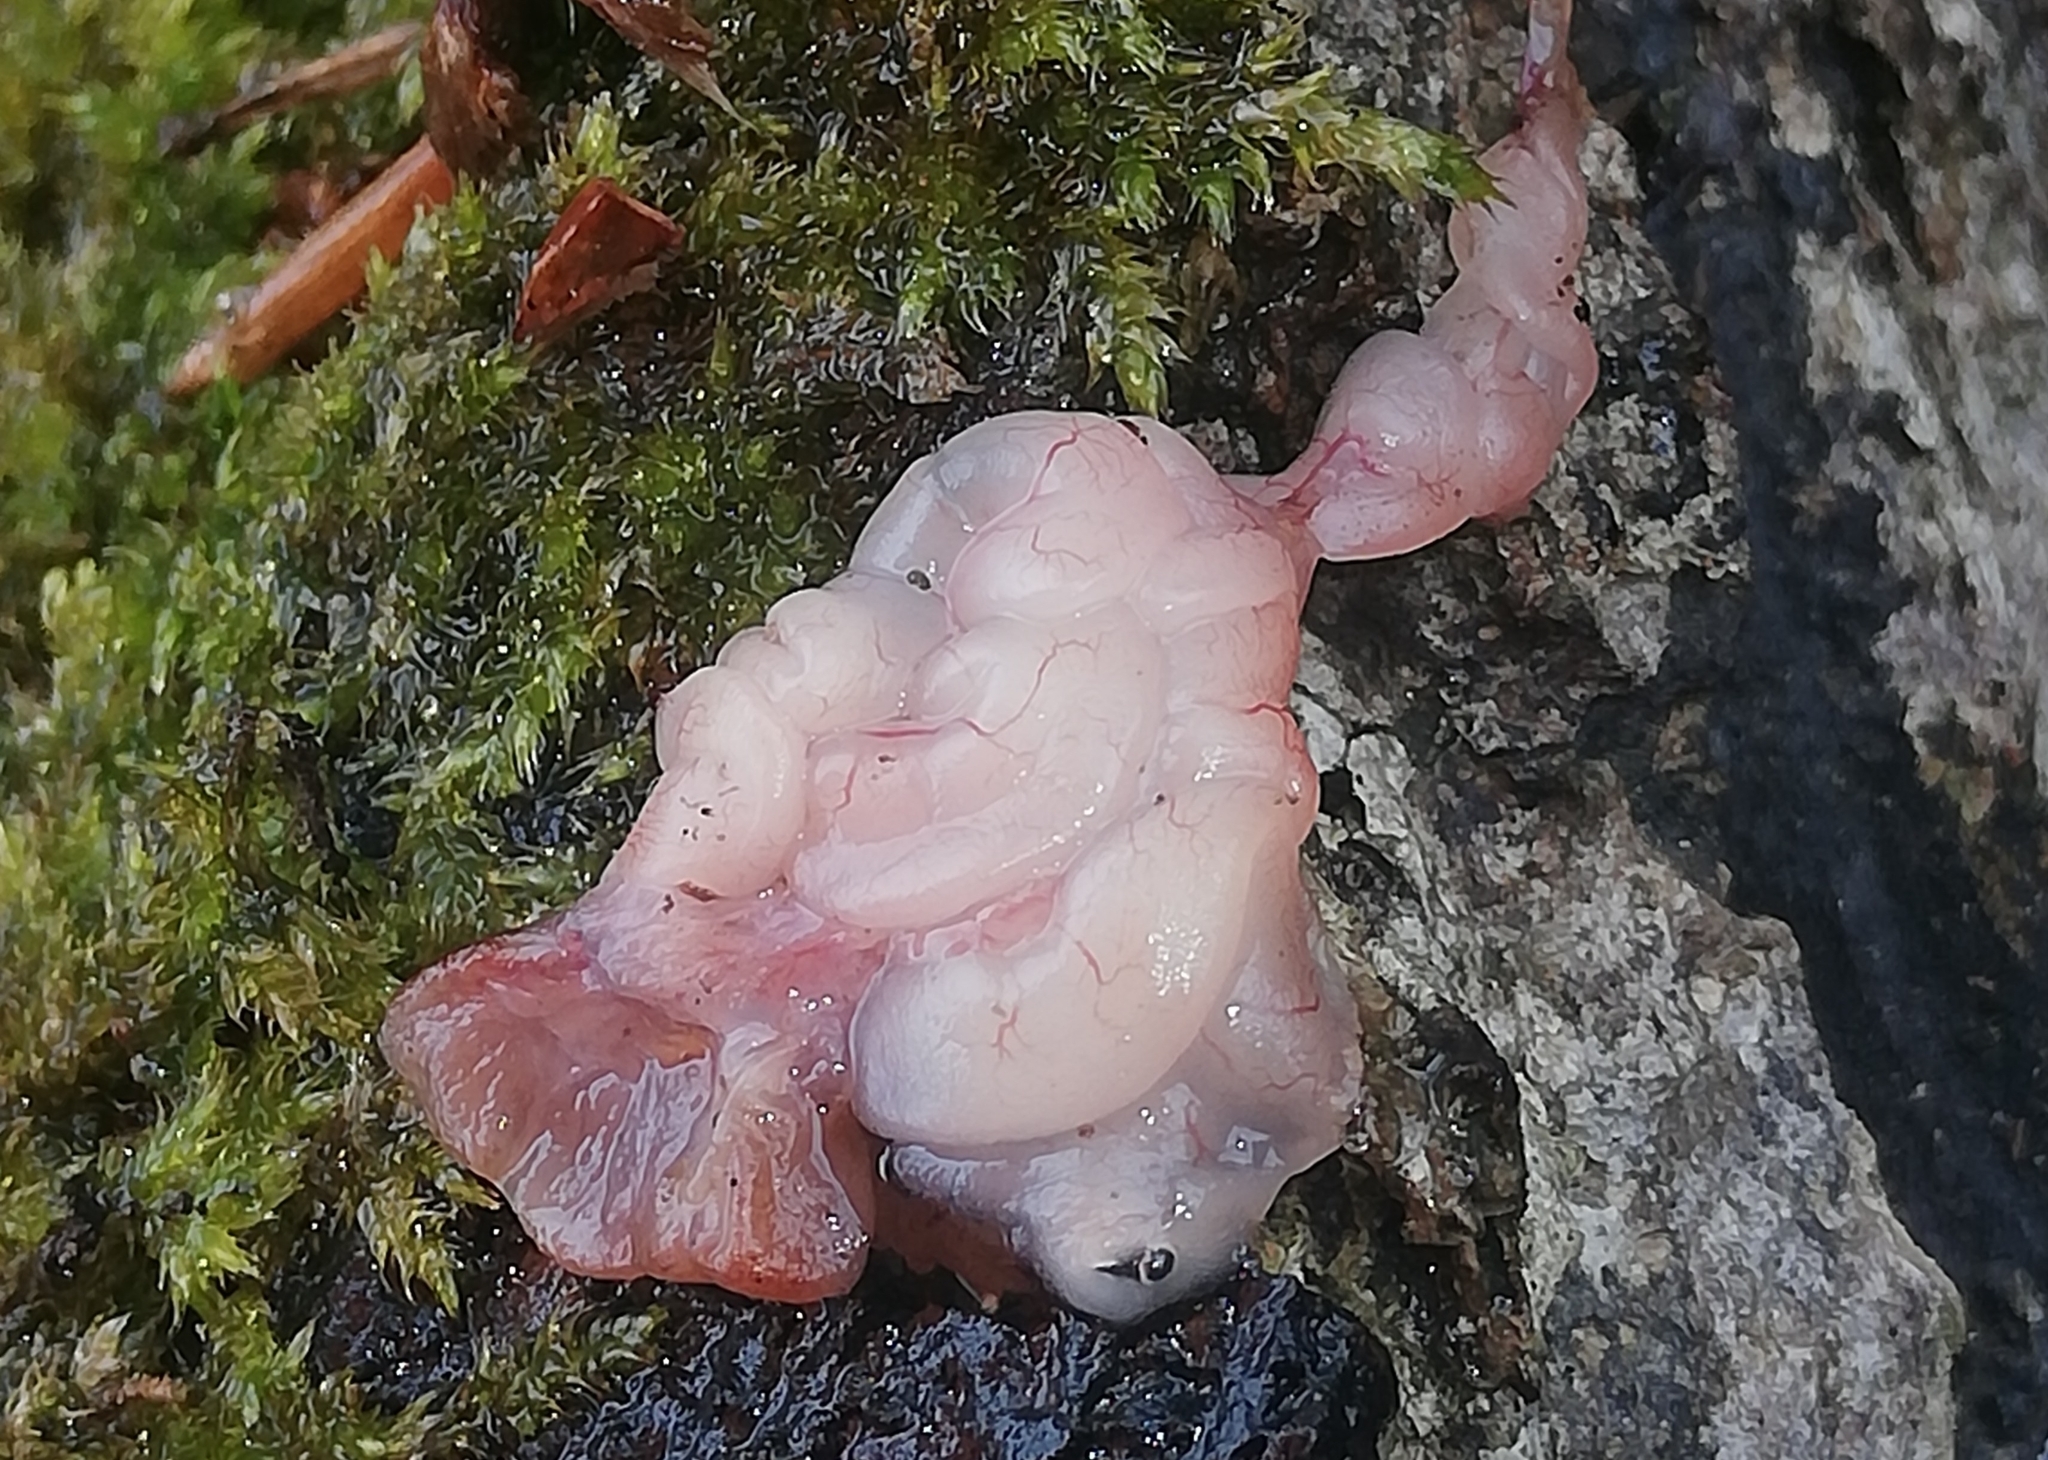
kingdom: Animalia
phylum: Chordata
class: Amphibia
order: Anura
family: Bufonidae
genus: Bufo
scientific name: Bufo bufo
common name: Common toad
